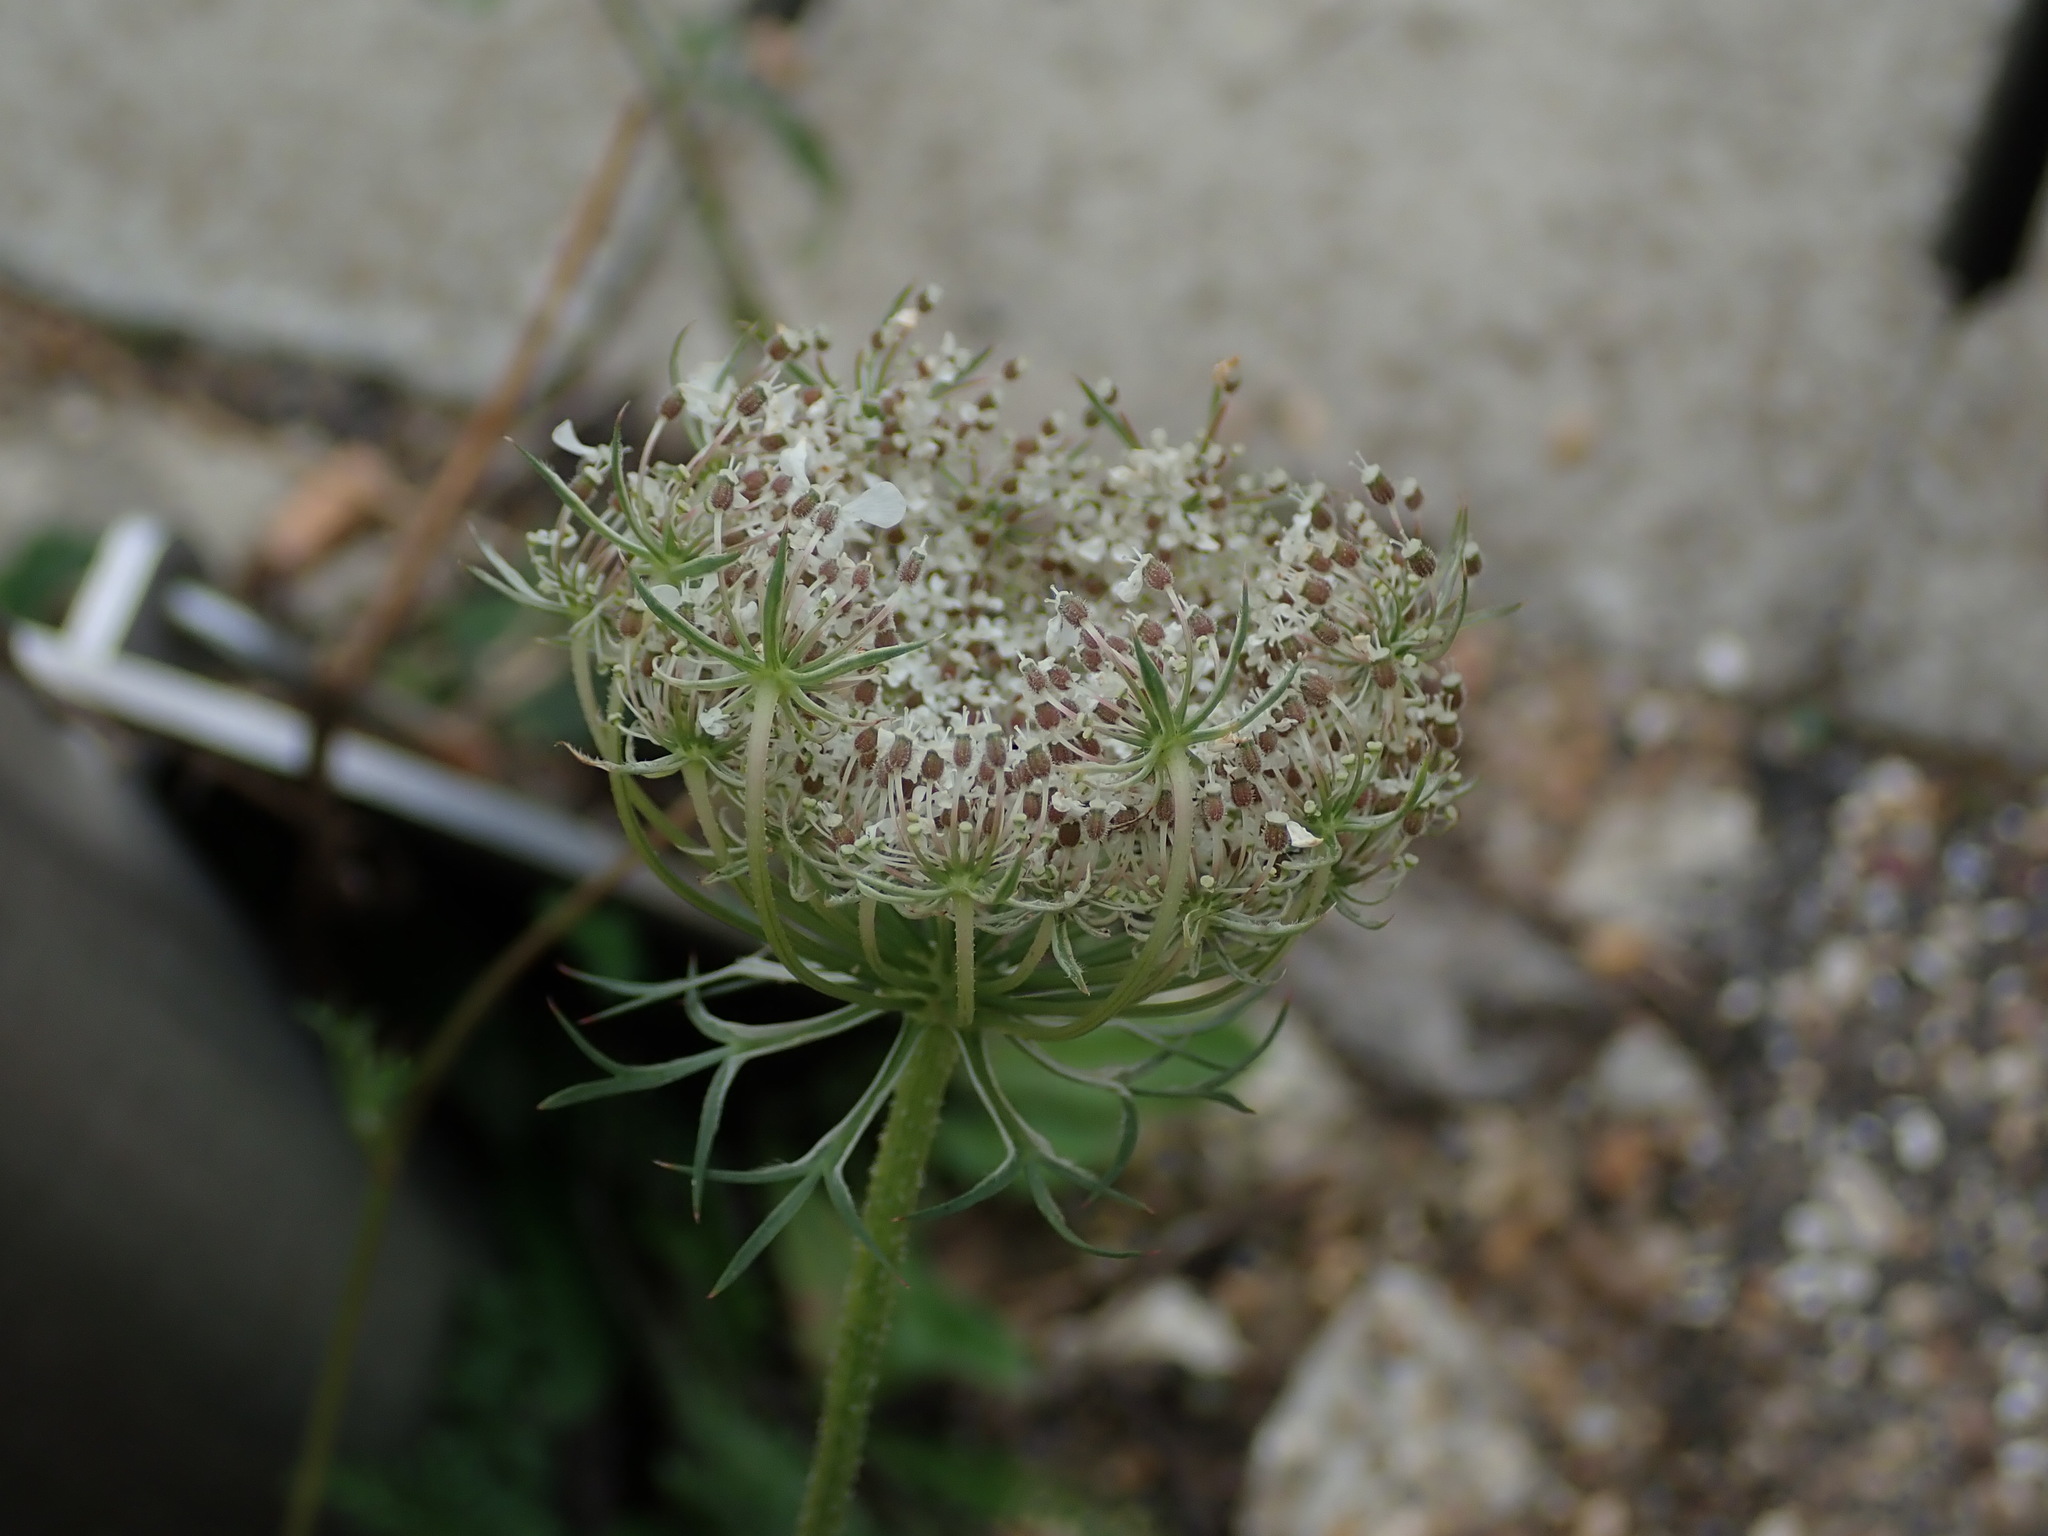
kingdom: Plantae
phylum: Tracheophyta
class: Magnoliopsida
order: Apiales
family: Apiaceae
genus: Daucus
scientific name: Daucus carota
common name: Wild carrot
